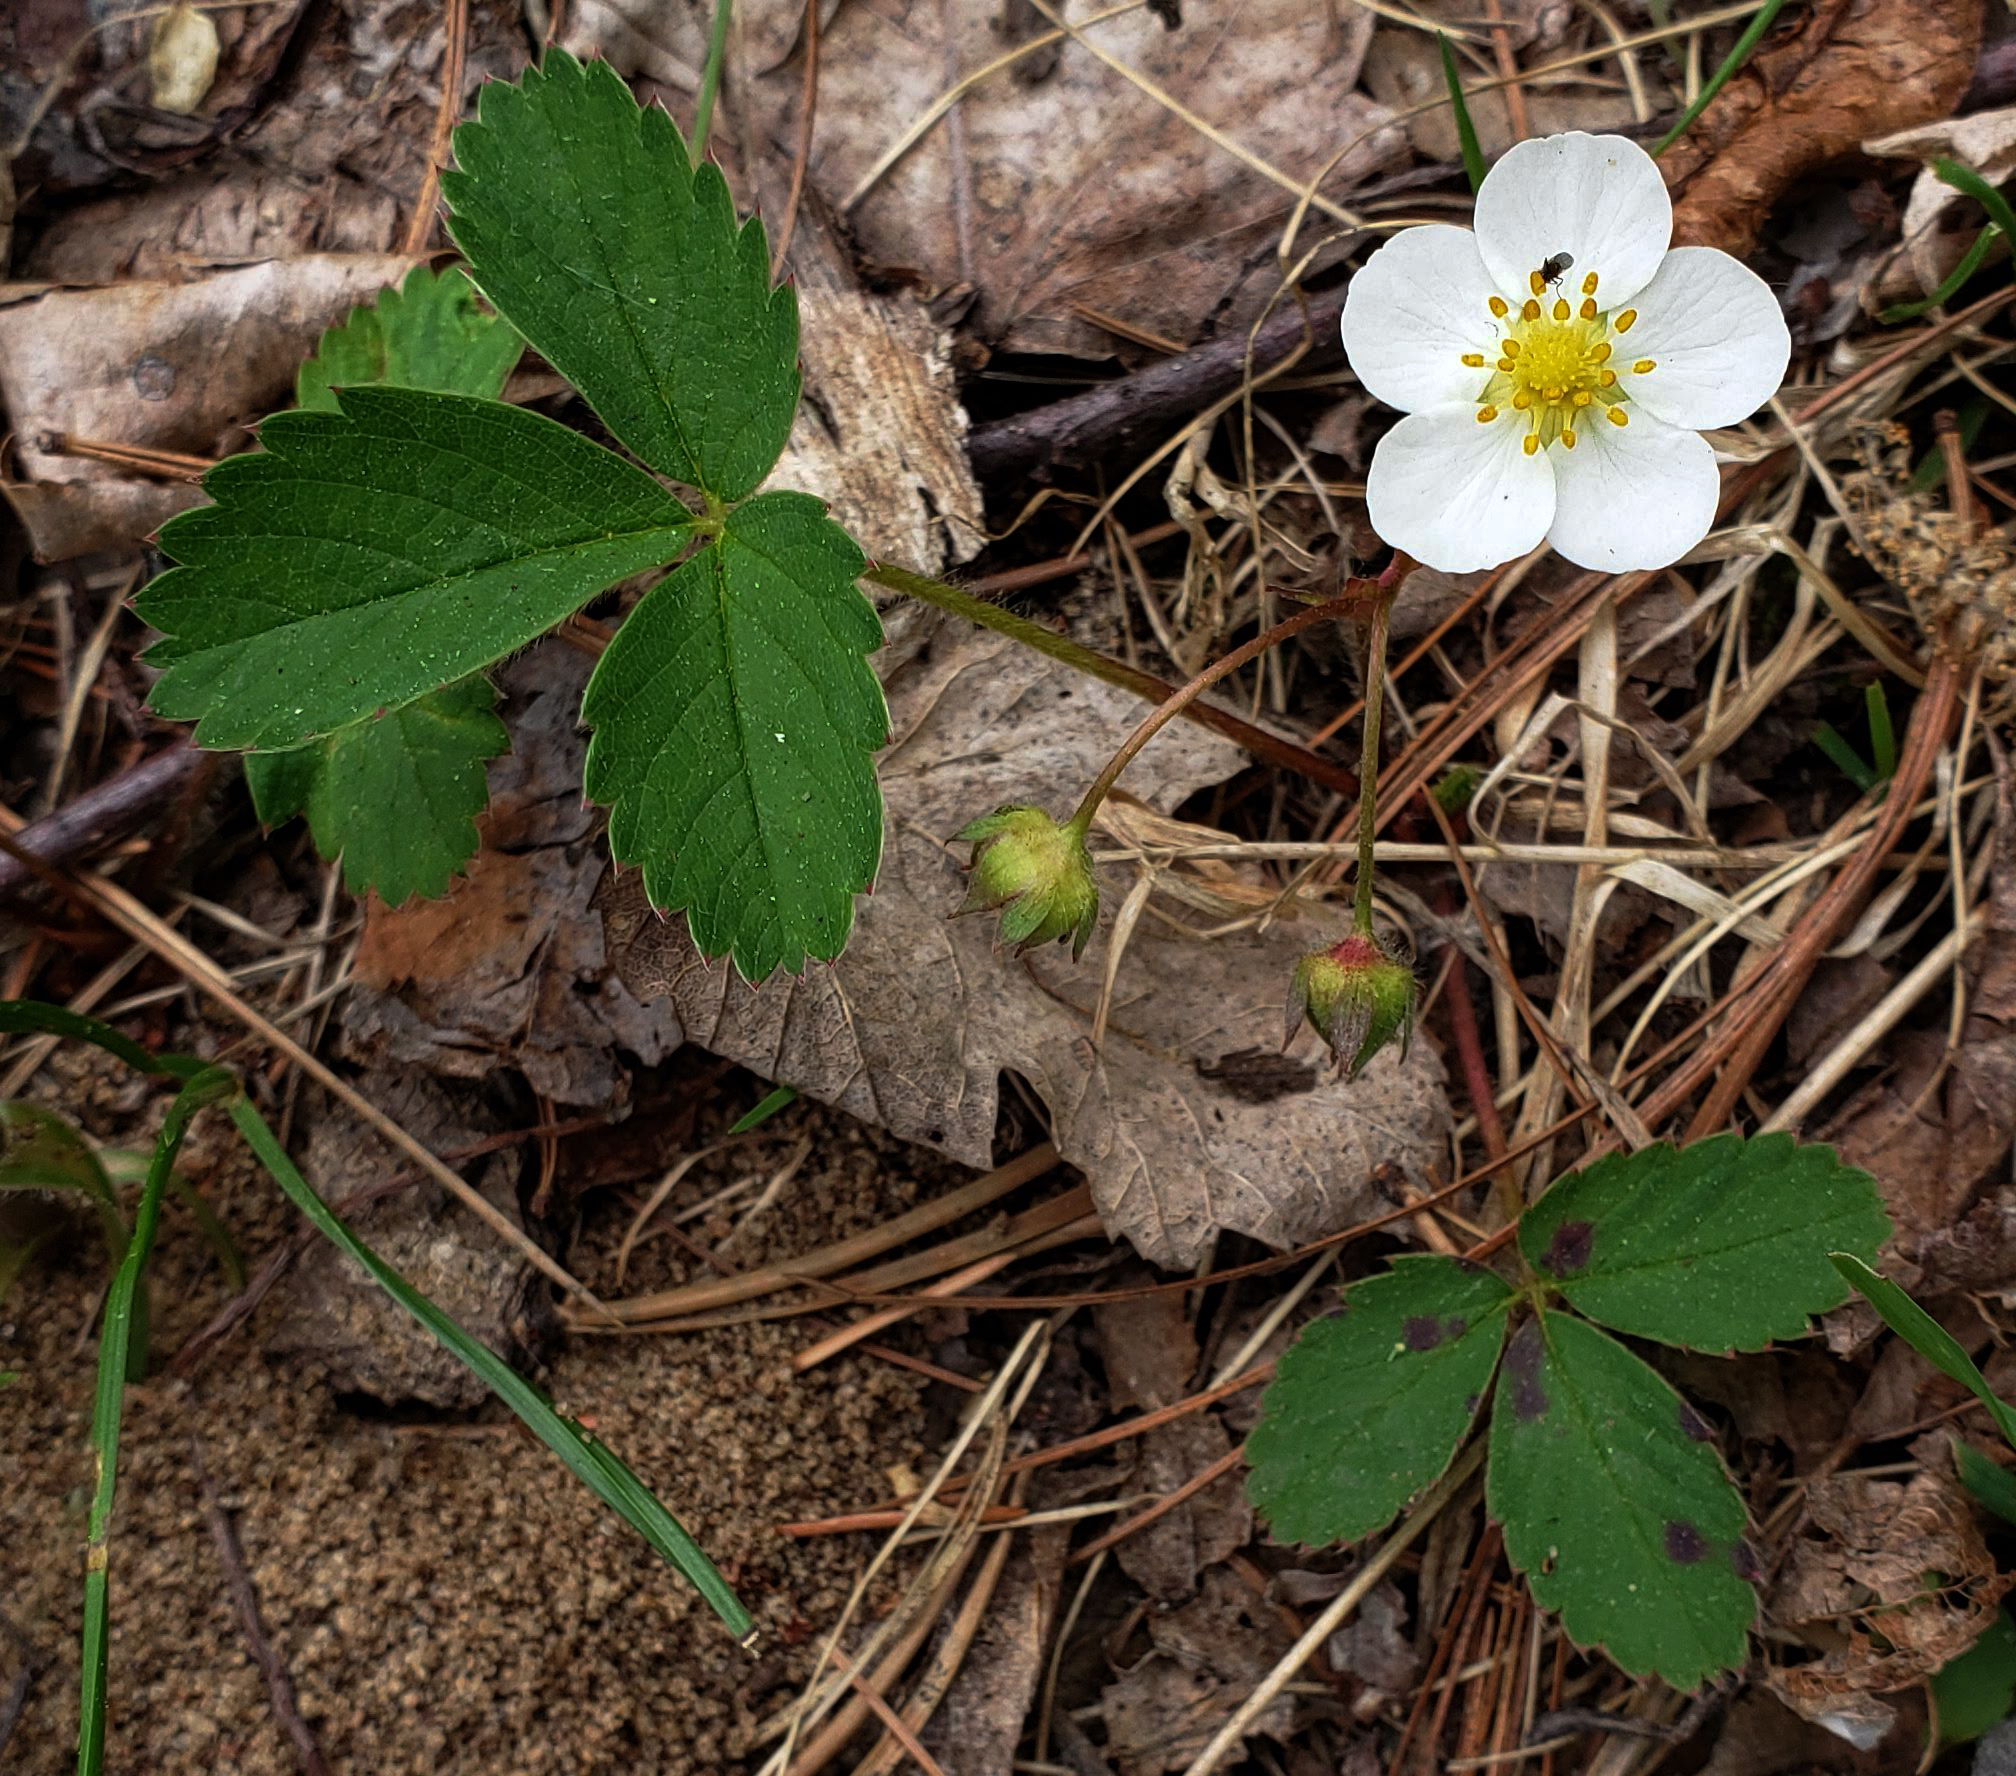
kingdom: Plantae
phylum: Tracheophyta
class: Magnoliopsida
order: Rosales
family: Rosaceae
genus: Fragaria
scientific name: Fragaria virginiana
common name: Thickleaved wild strawberry
